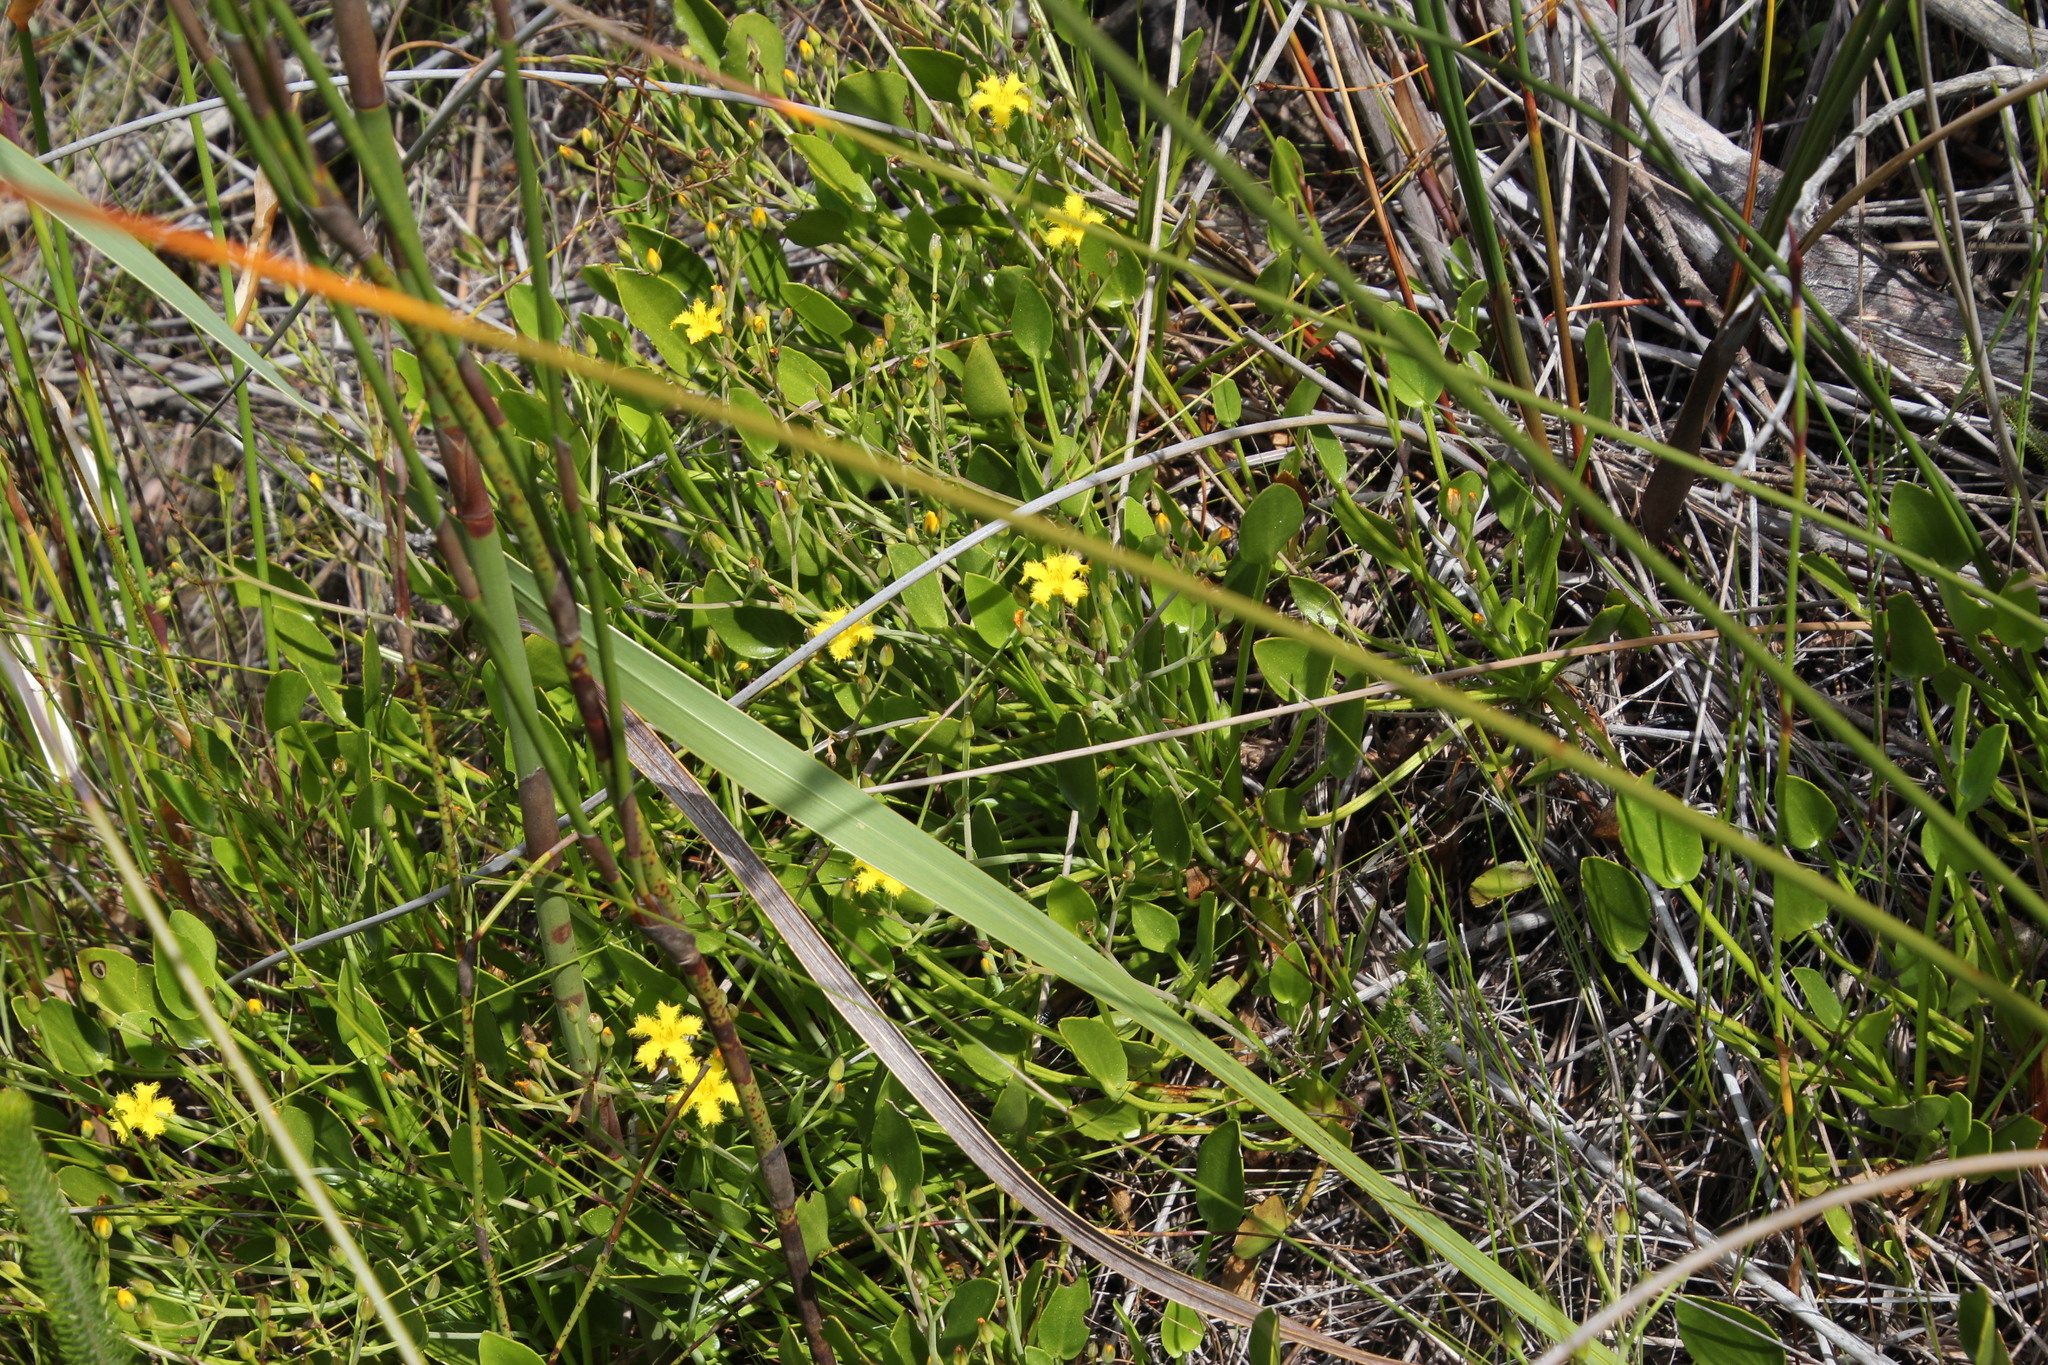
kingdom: Plantae
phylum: Tracheophyta
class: Magnoliopsida
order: Asterales
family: Menyanthaceae
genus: Villarsia
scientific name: Villarsia manningiana
